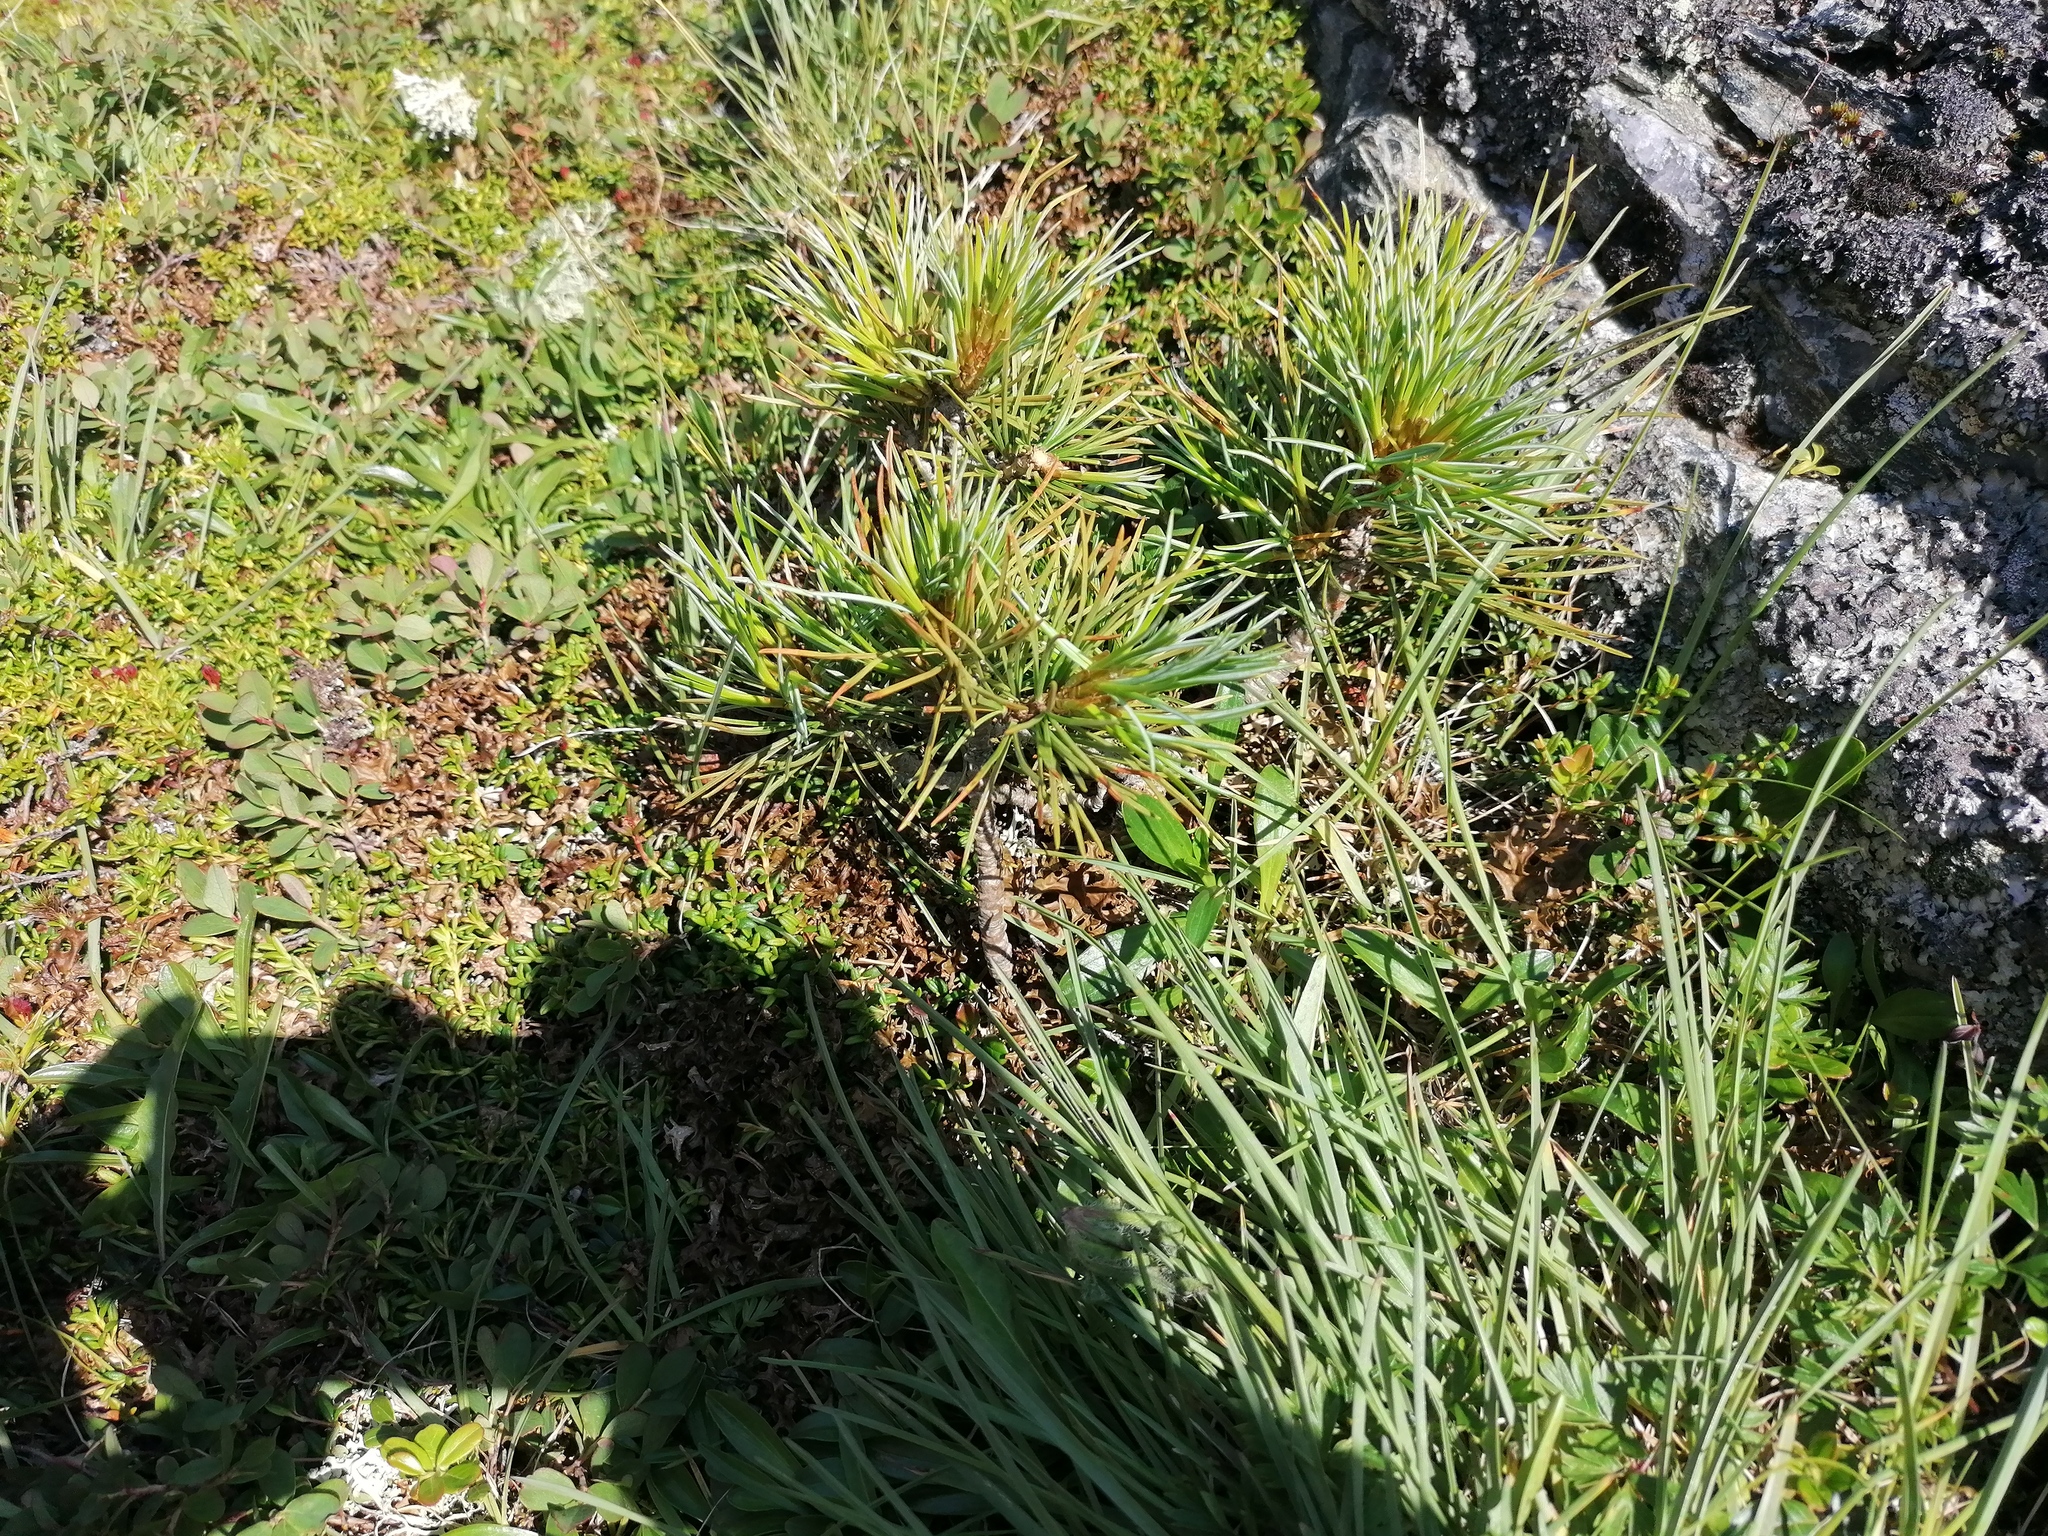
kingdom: Plantae
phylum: Tracheophyta
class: Pinopsida
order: Pinales
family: Pinaceae
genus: Pinus
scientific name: Pinus cembra
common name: Arolla pine
